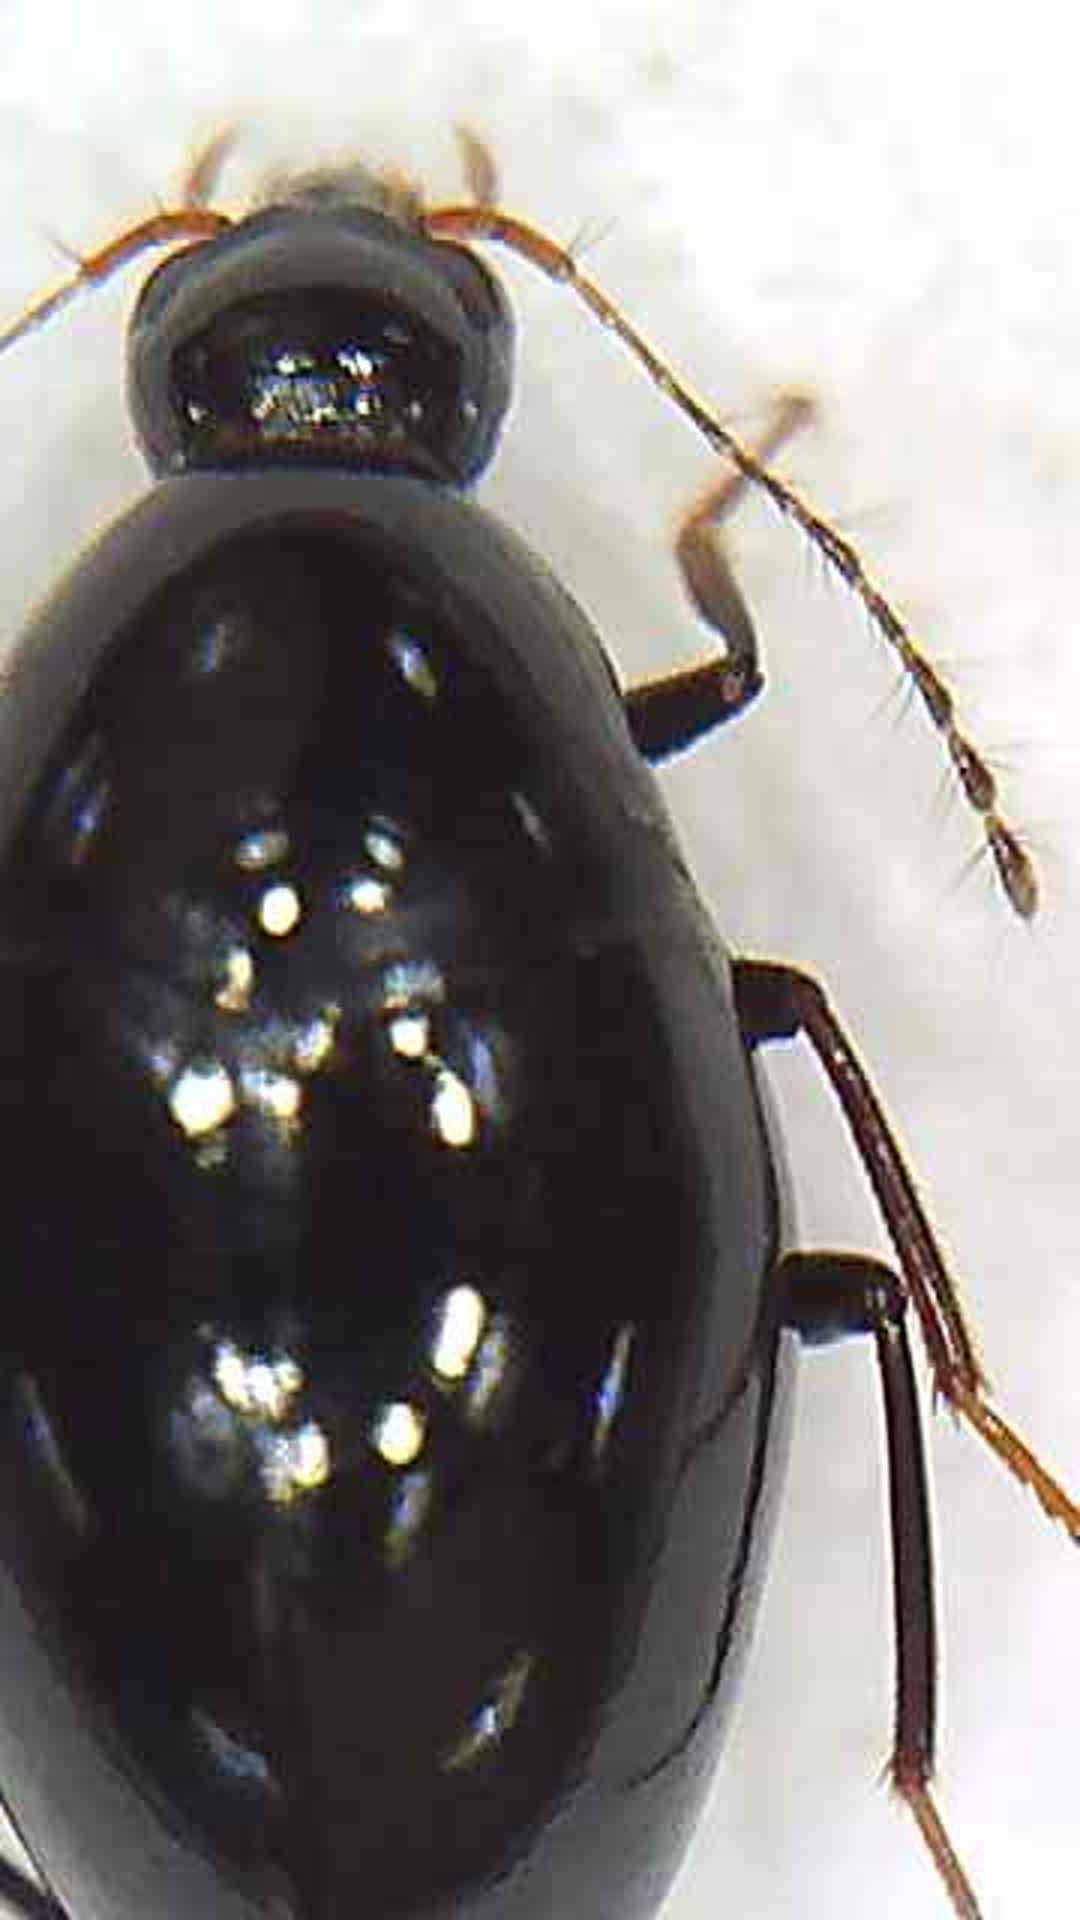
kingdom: Animalia
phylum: Arthropoda
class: Insecta
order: Coleoptera
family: Staphylinidae
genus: Notonewtonia
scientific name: Notonewtonia watti
